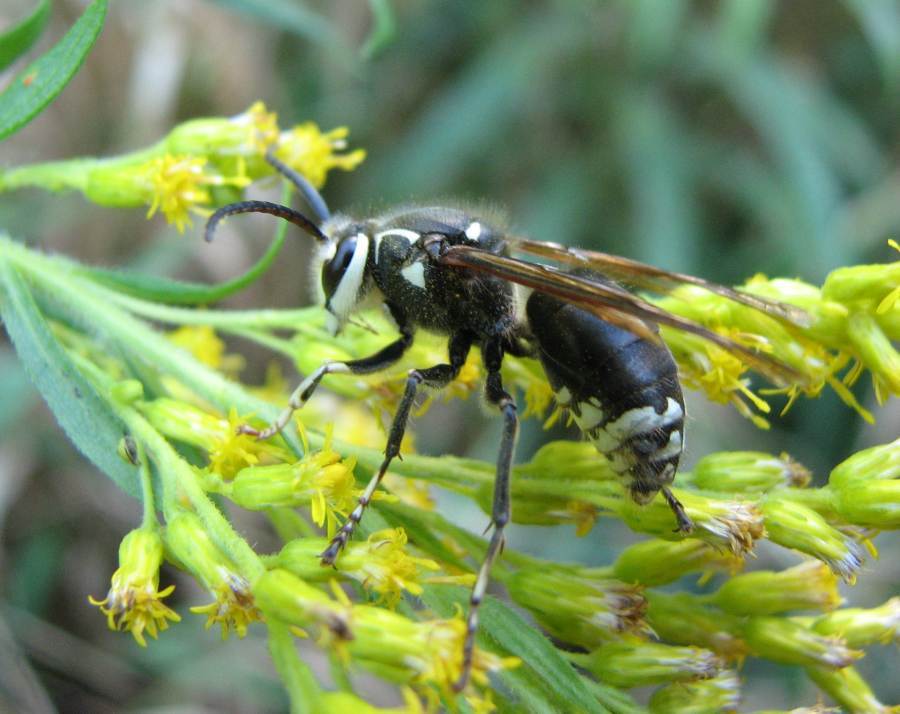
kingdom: Animalia
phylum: Arthropoda
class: Insecta
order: Hymenoptera
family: Vespidae
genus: Dolichovespula
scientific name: Dolichovespula maculata
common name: Bald-faced hornet
